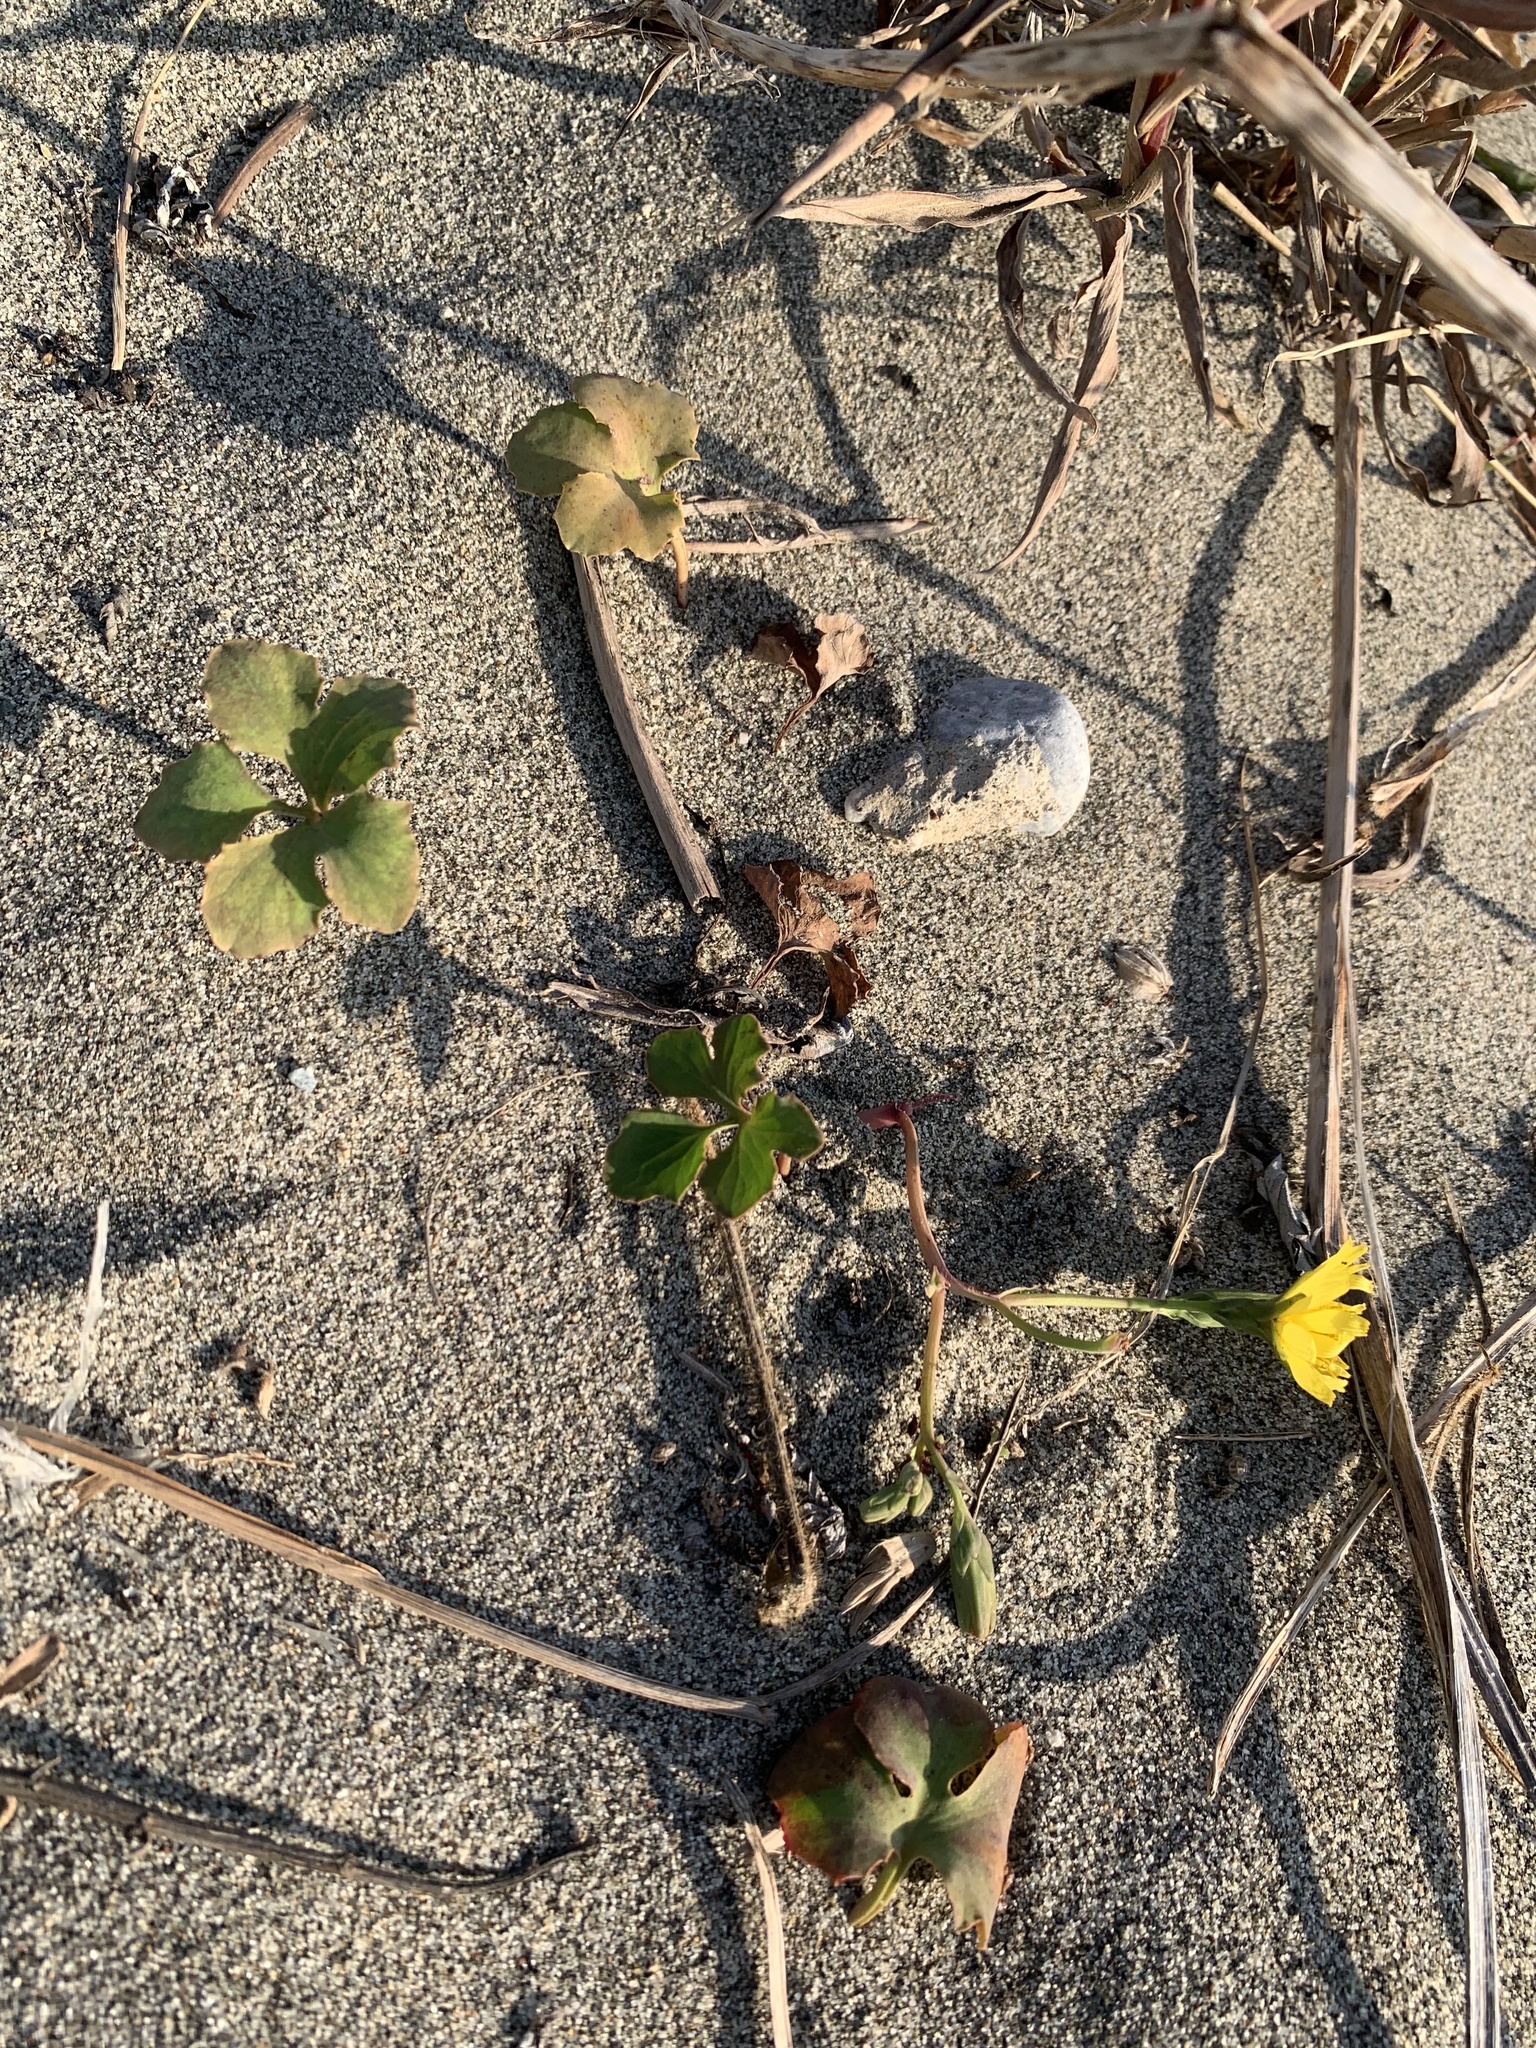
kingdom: Plantae
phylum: Tracheophyta
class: Magnoliopsida
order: Asterales
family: Asteraceae
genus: Ixeris
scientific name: Ixeris repens
